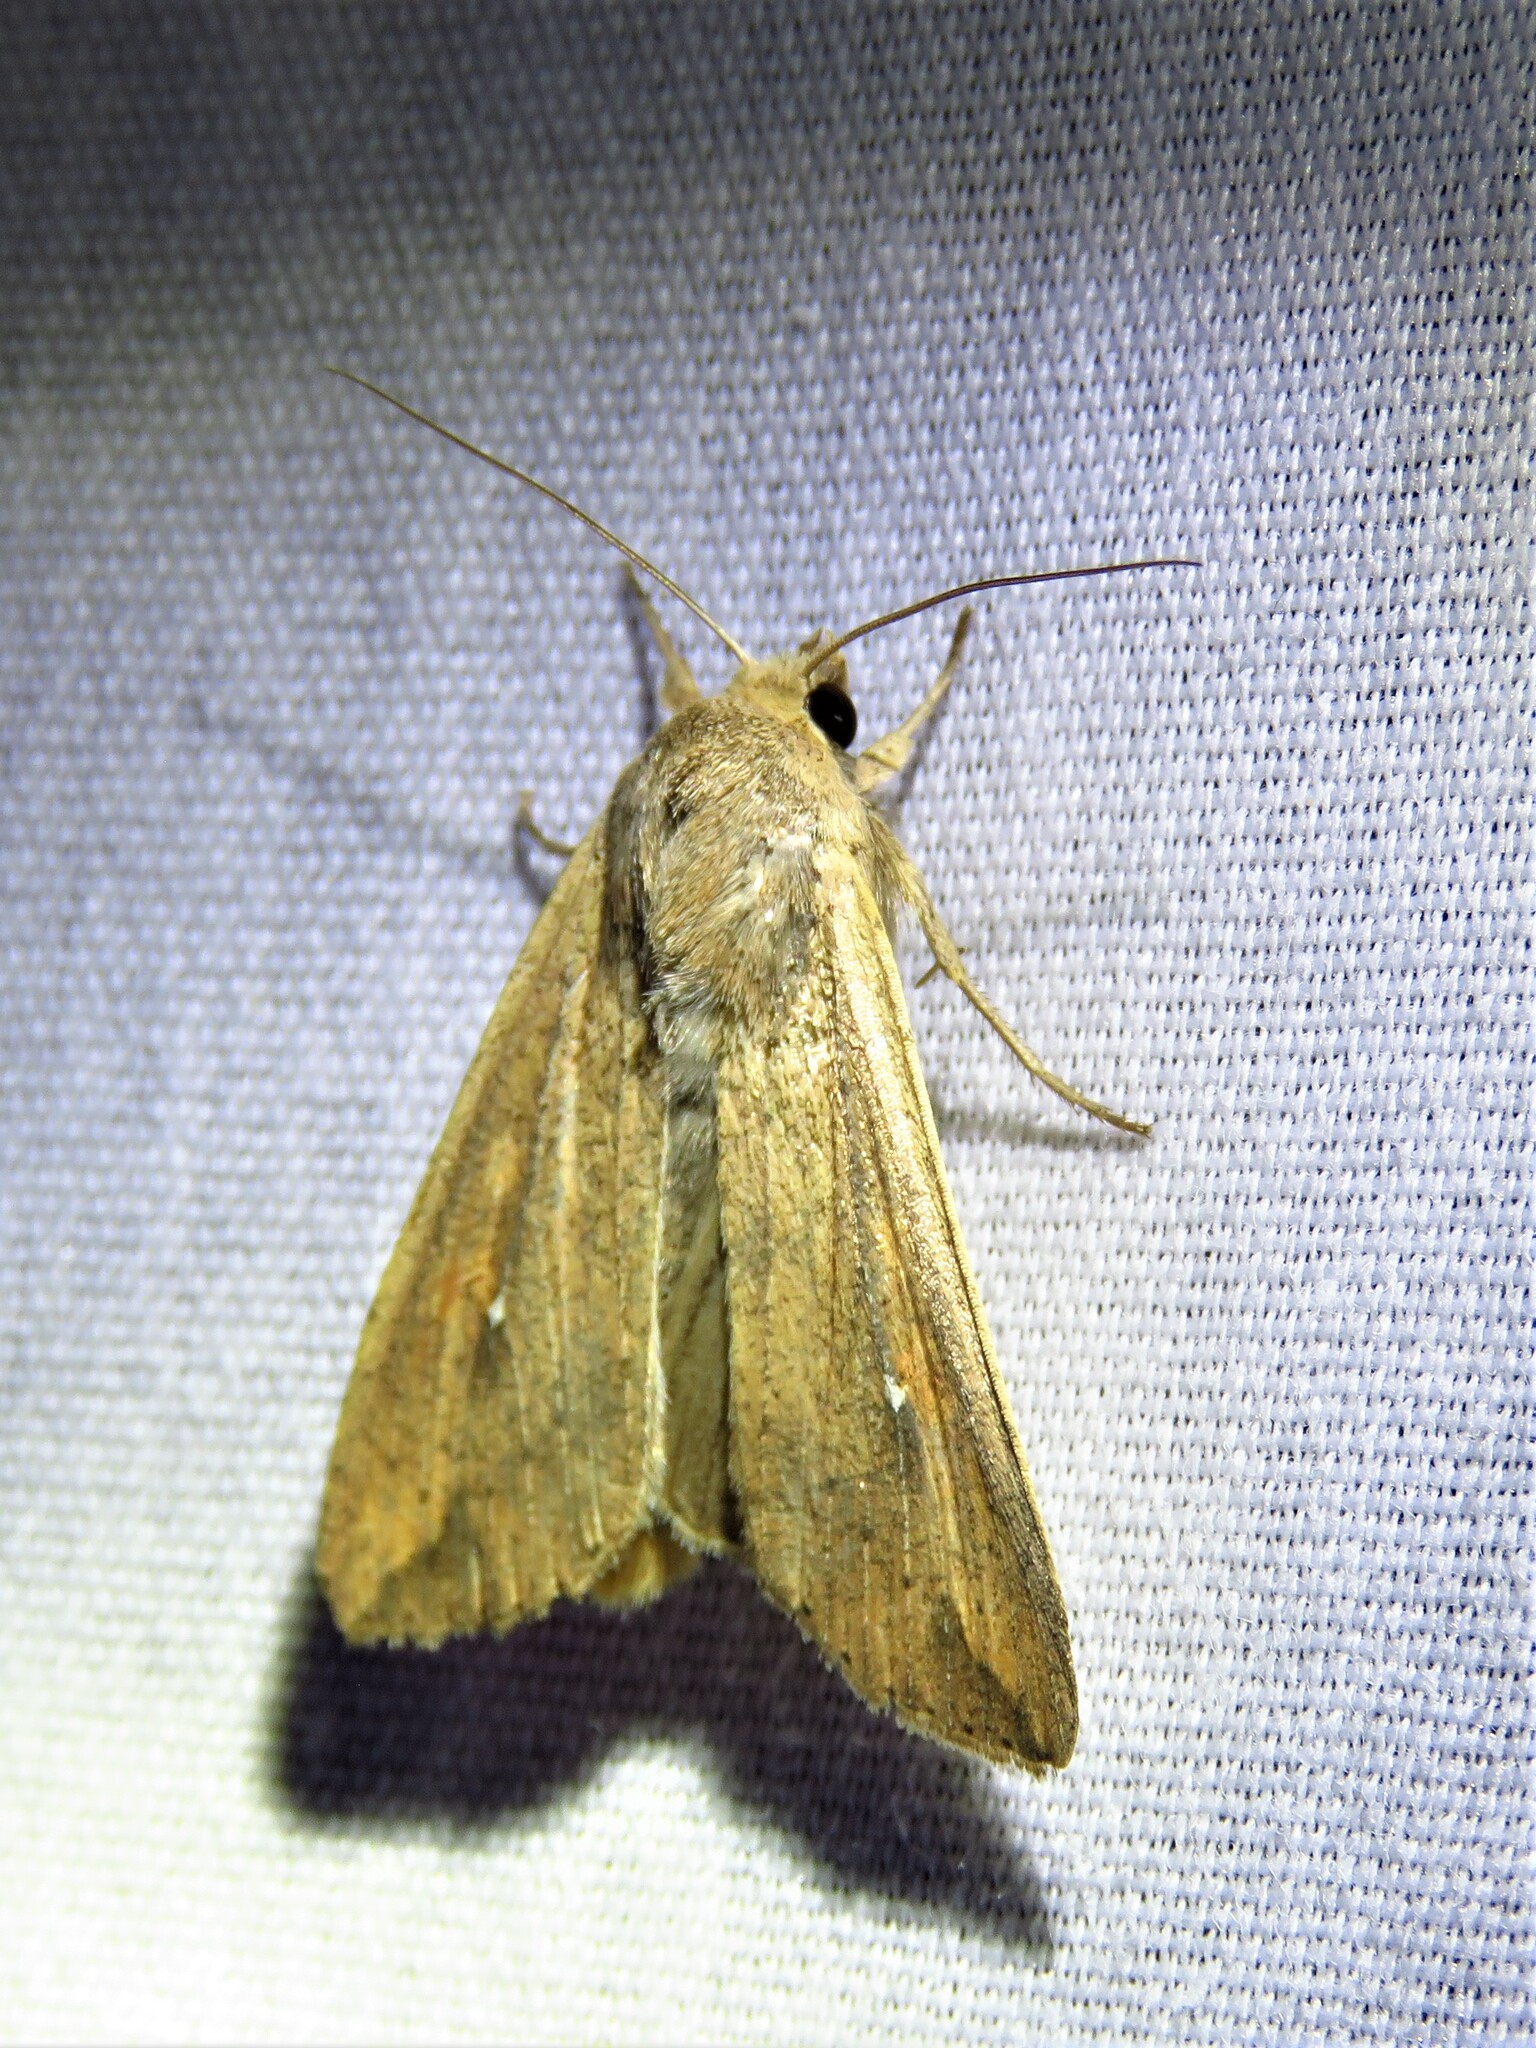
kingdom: Animalia
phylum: Arthropoda
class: Insecta
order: Lepidoptera
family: Noctuidae
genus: Mythimna
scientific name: Mythimna unipuncta
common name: White-speck
